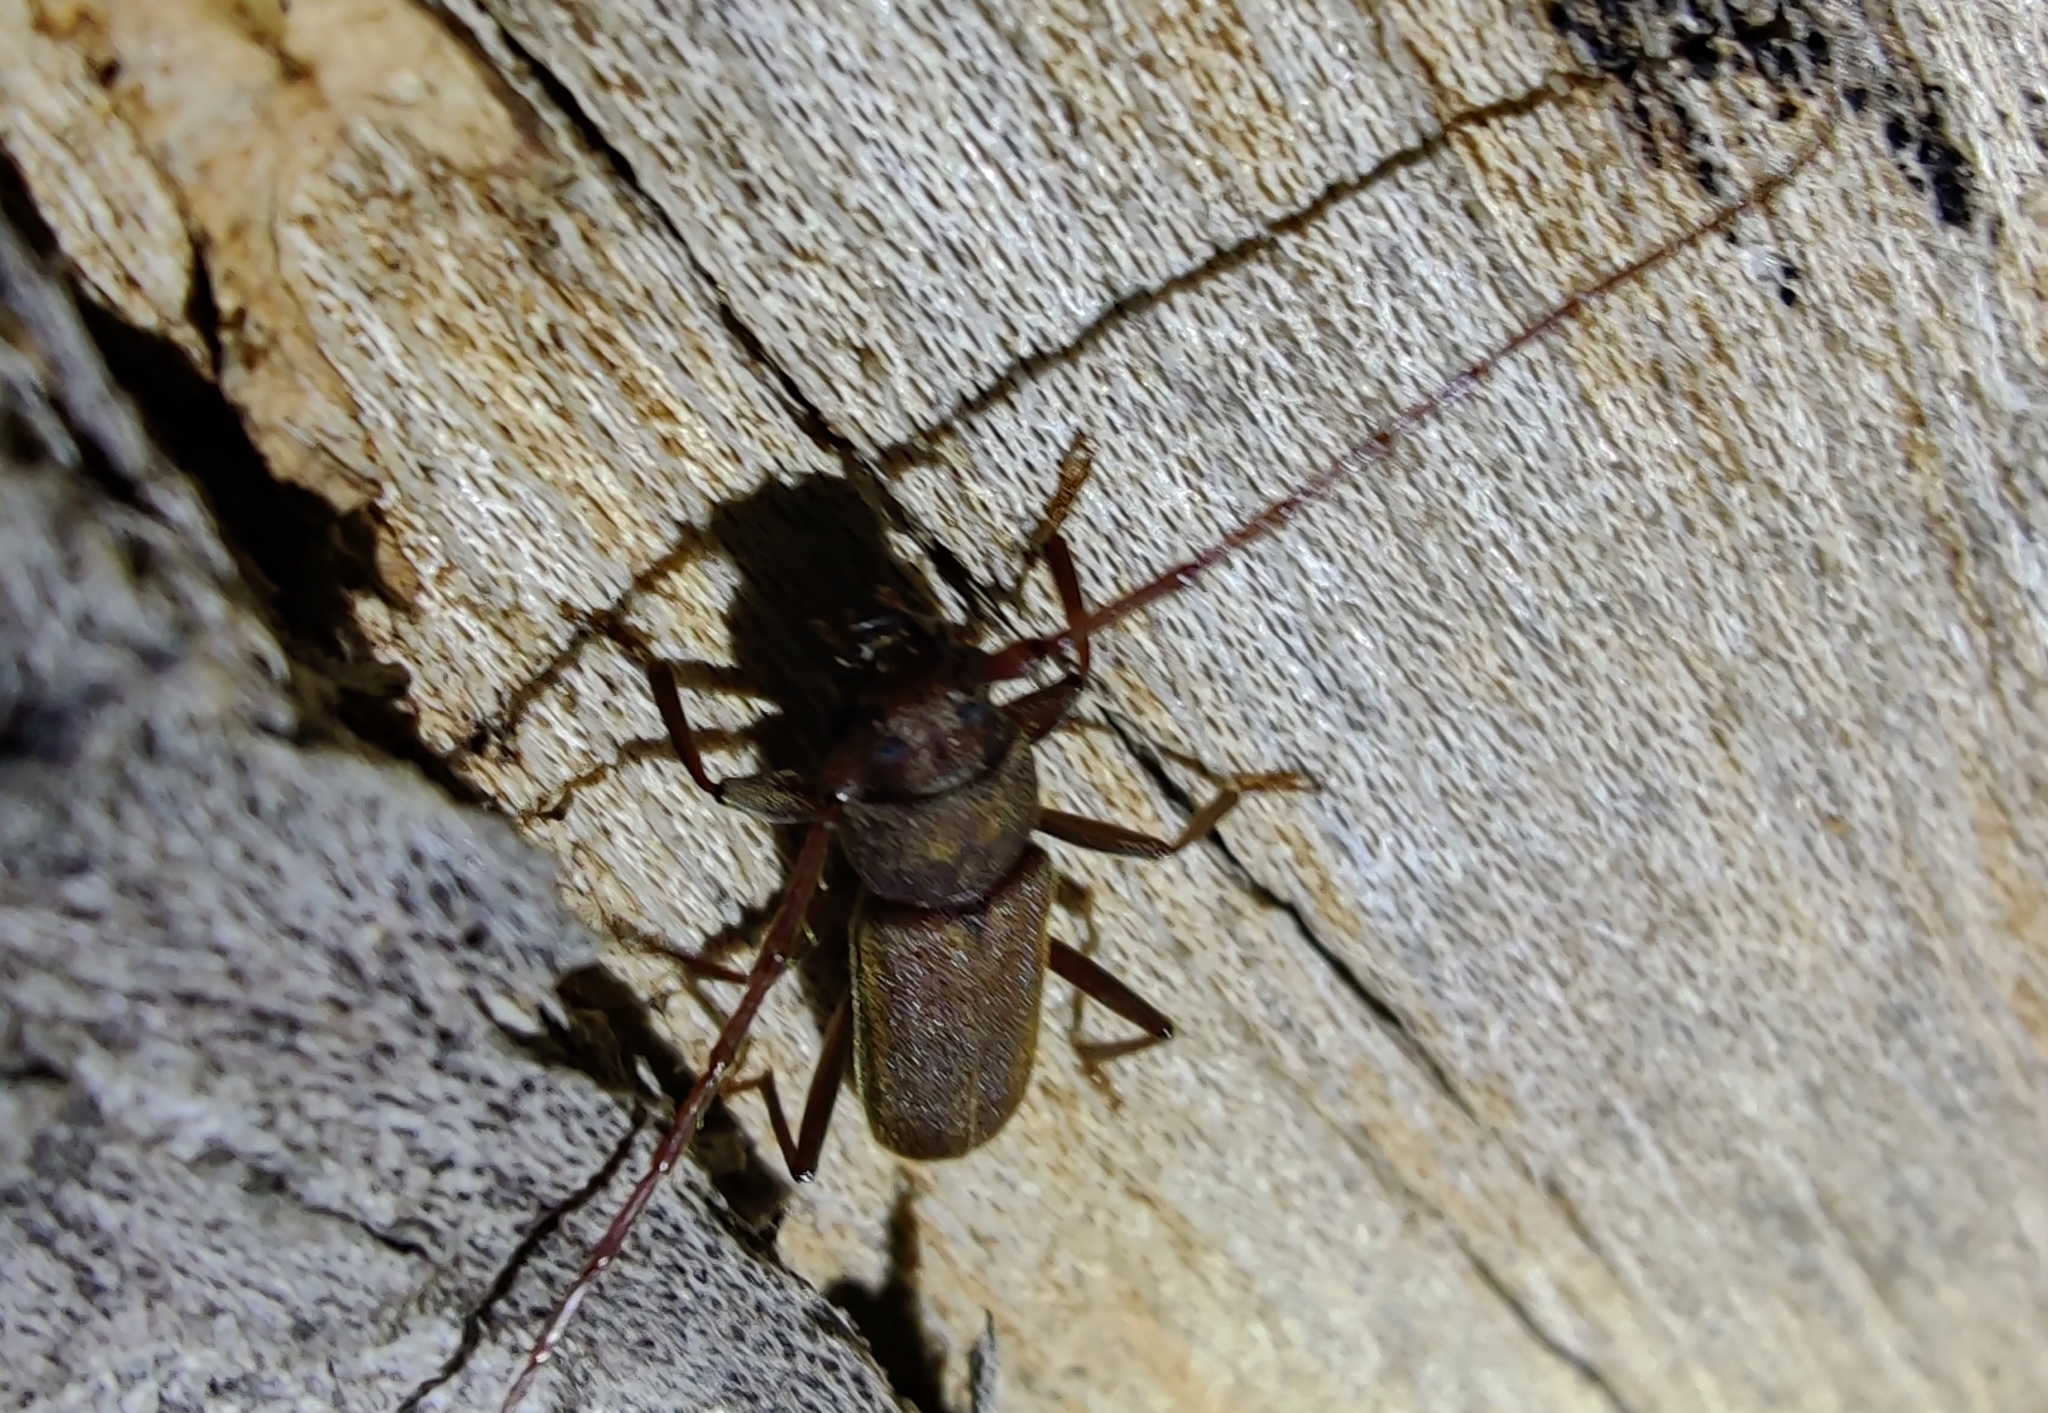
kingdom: Animalia
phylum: Arthropoda
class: Insecta
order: Coleoptera
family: Cerambycidae
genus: Stromatium
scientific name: Stromatium barbatum
